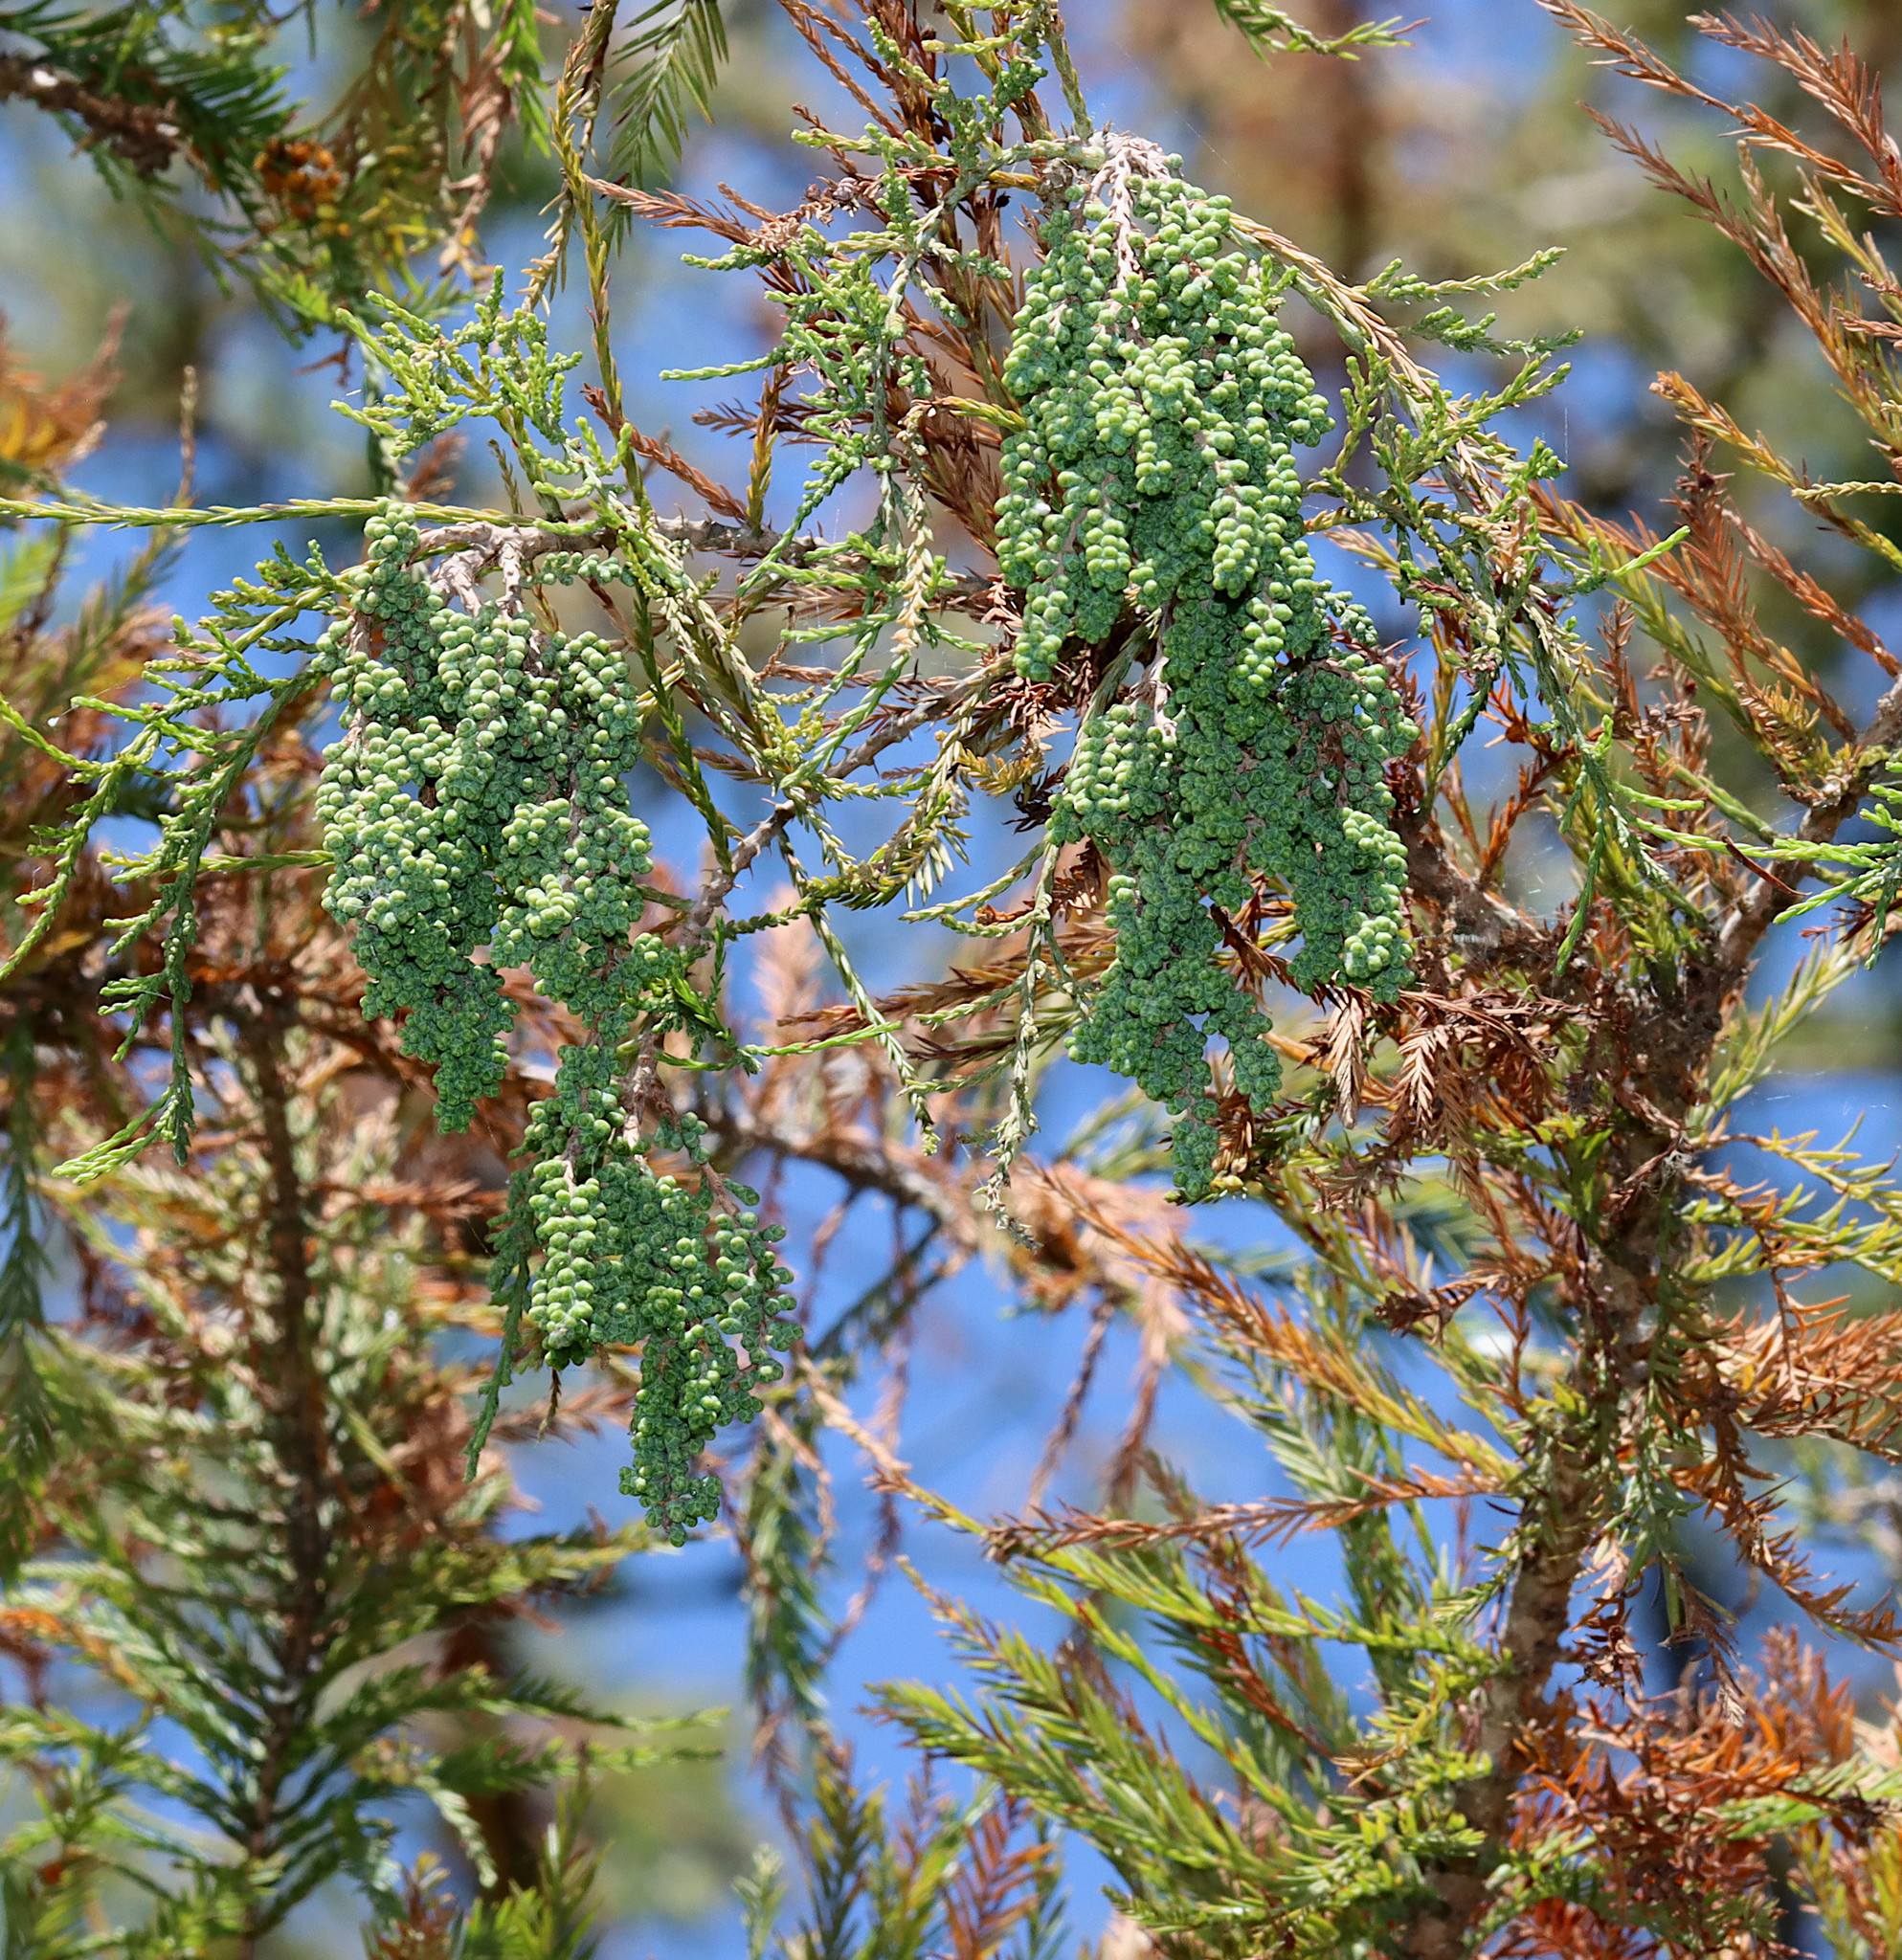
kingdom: Plantae
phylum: Tracheophyta
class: Pinopsida
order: Pinales
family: Cupressaceae
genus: Taxodium
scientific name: Taxodium distichum
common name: Bald cypress
